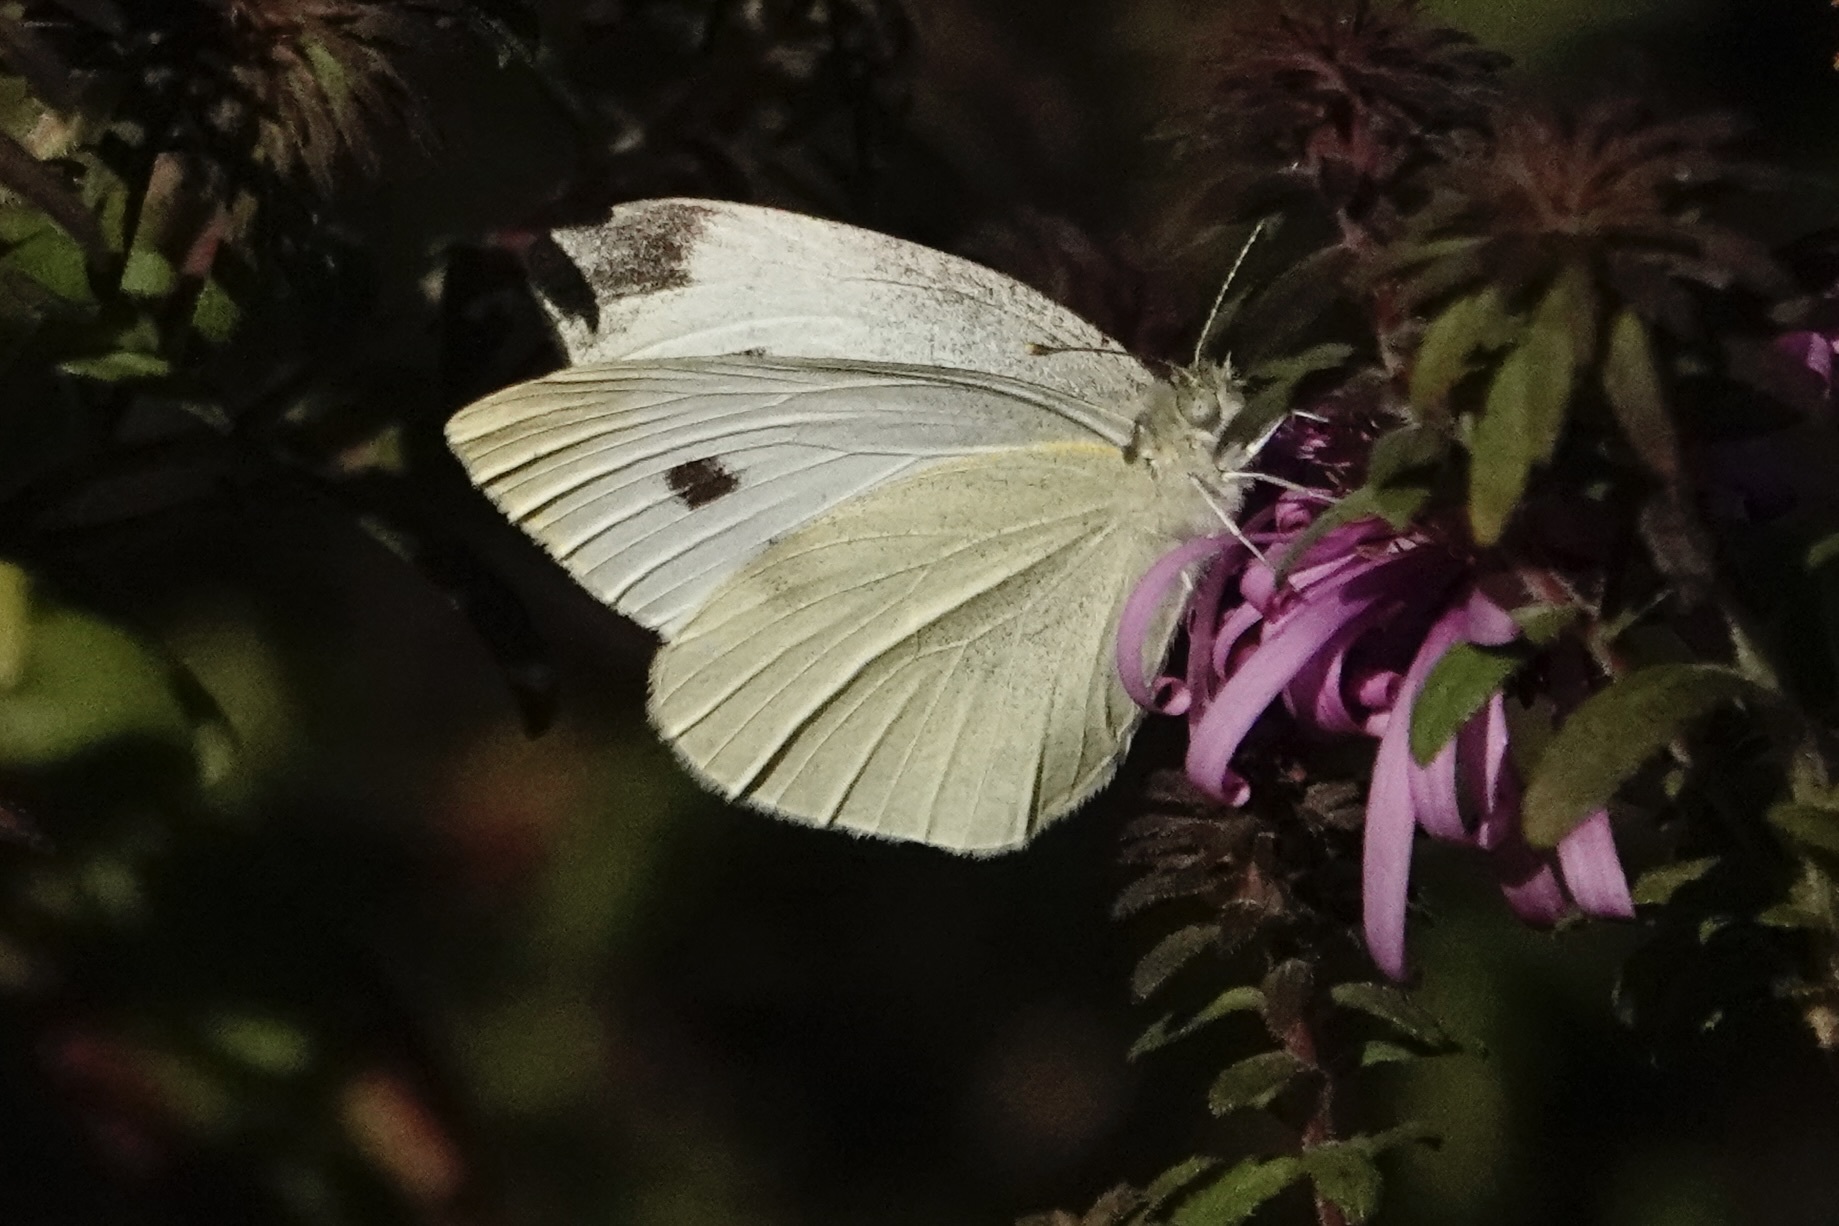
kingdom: Animalia
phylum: Arthropoda
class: Insecta
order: Lepidoptera
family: Pieridae
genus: Pieris
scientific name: Pieris rapae
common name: Small white
